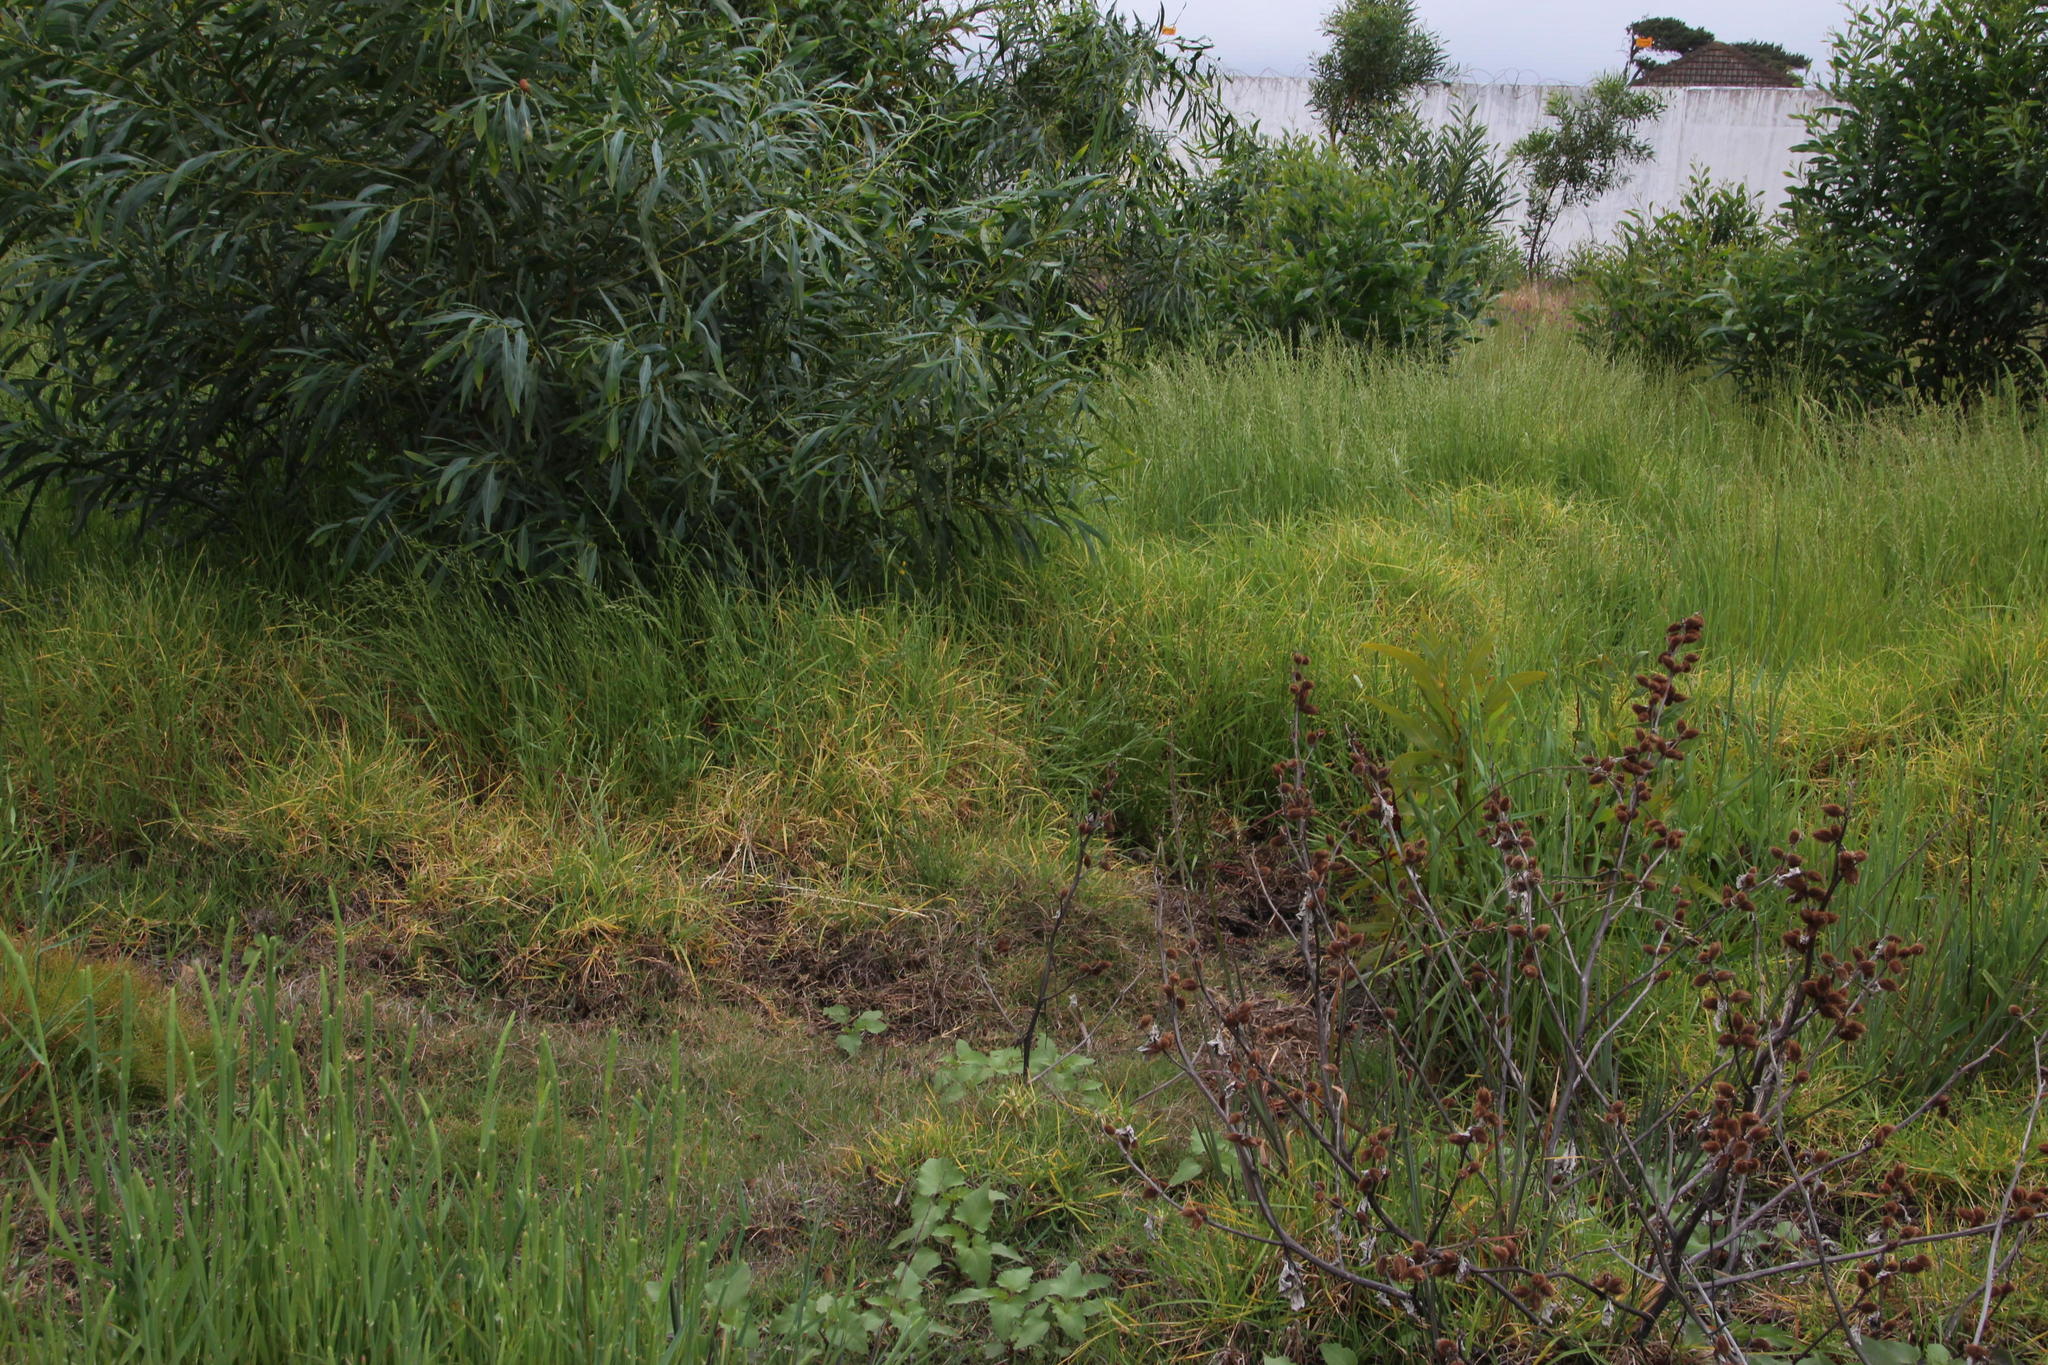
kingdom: Plantae
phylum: Tracheophyta
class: Liliopsida
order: Poales
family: Poaceae
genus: Cenchrus
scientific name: Cenchrus clandestinus
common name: Kikuyugrass
